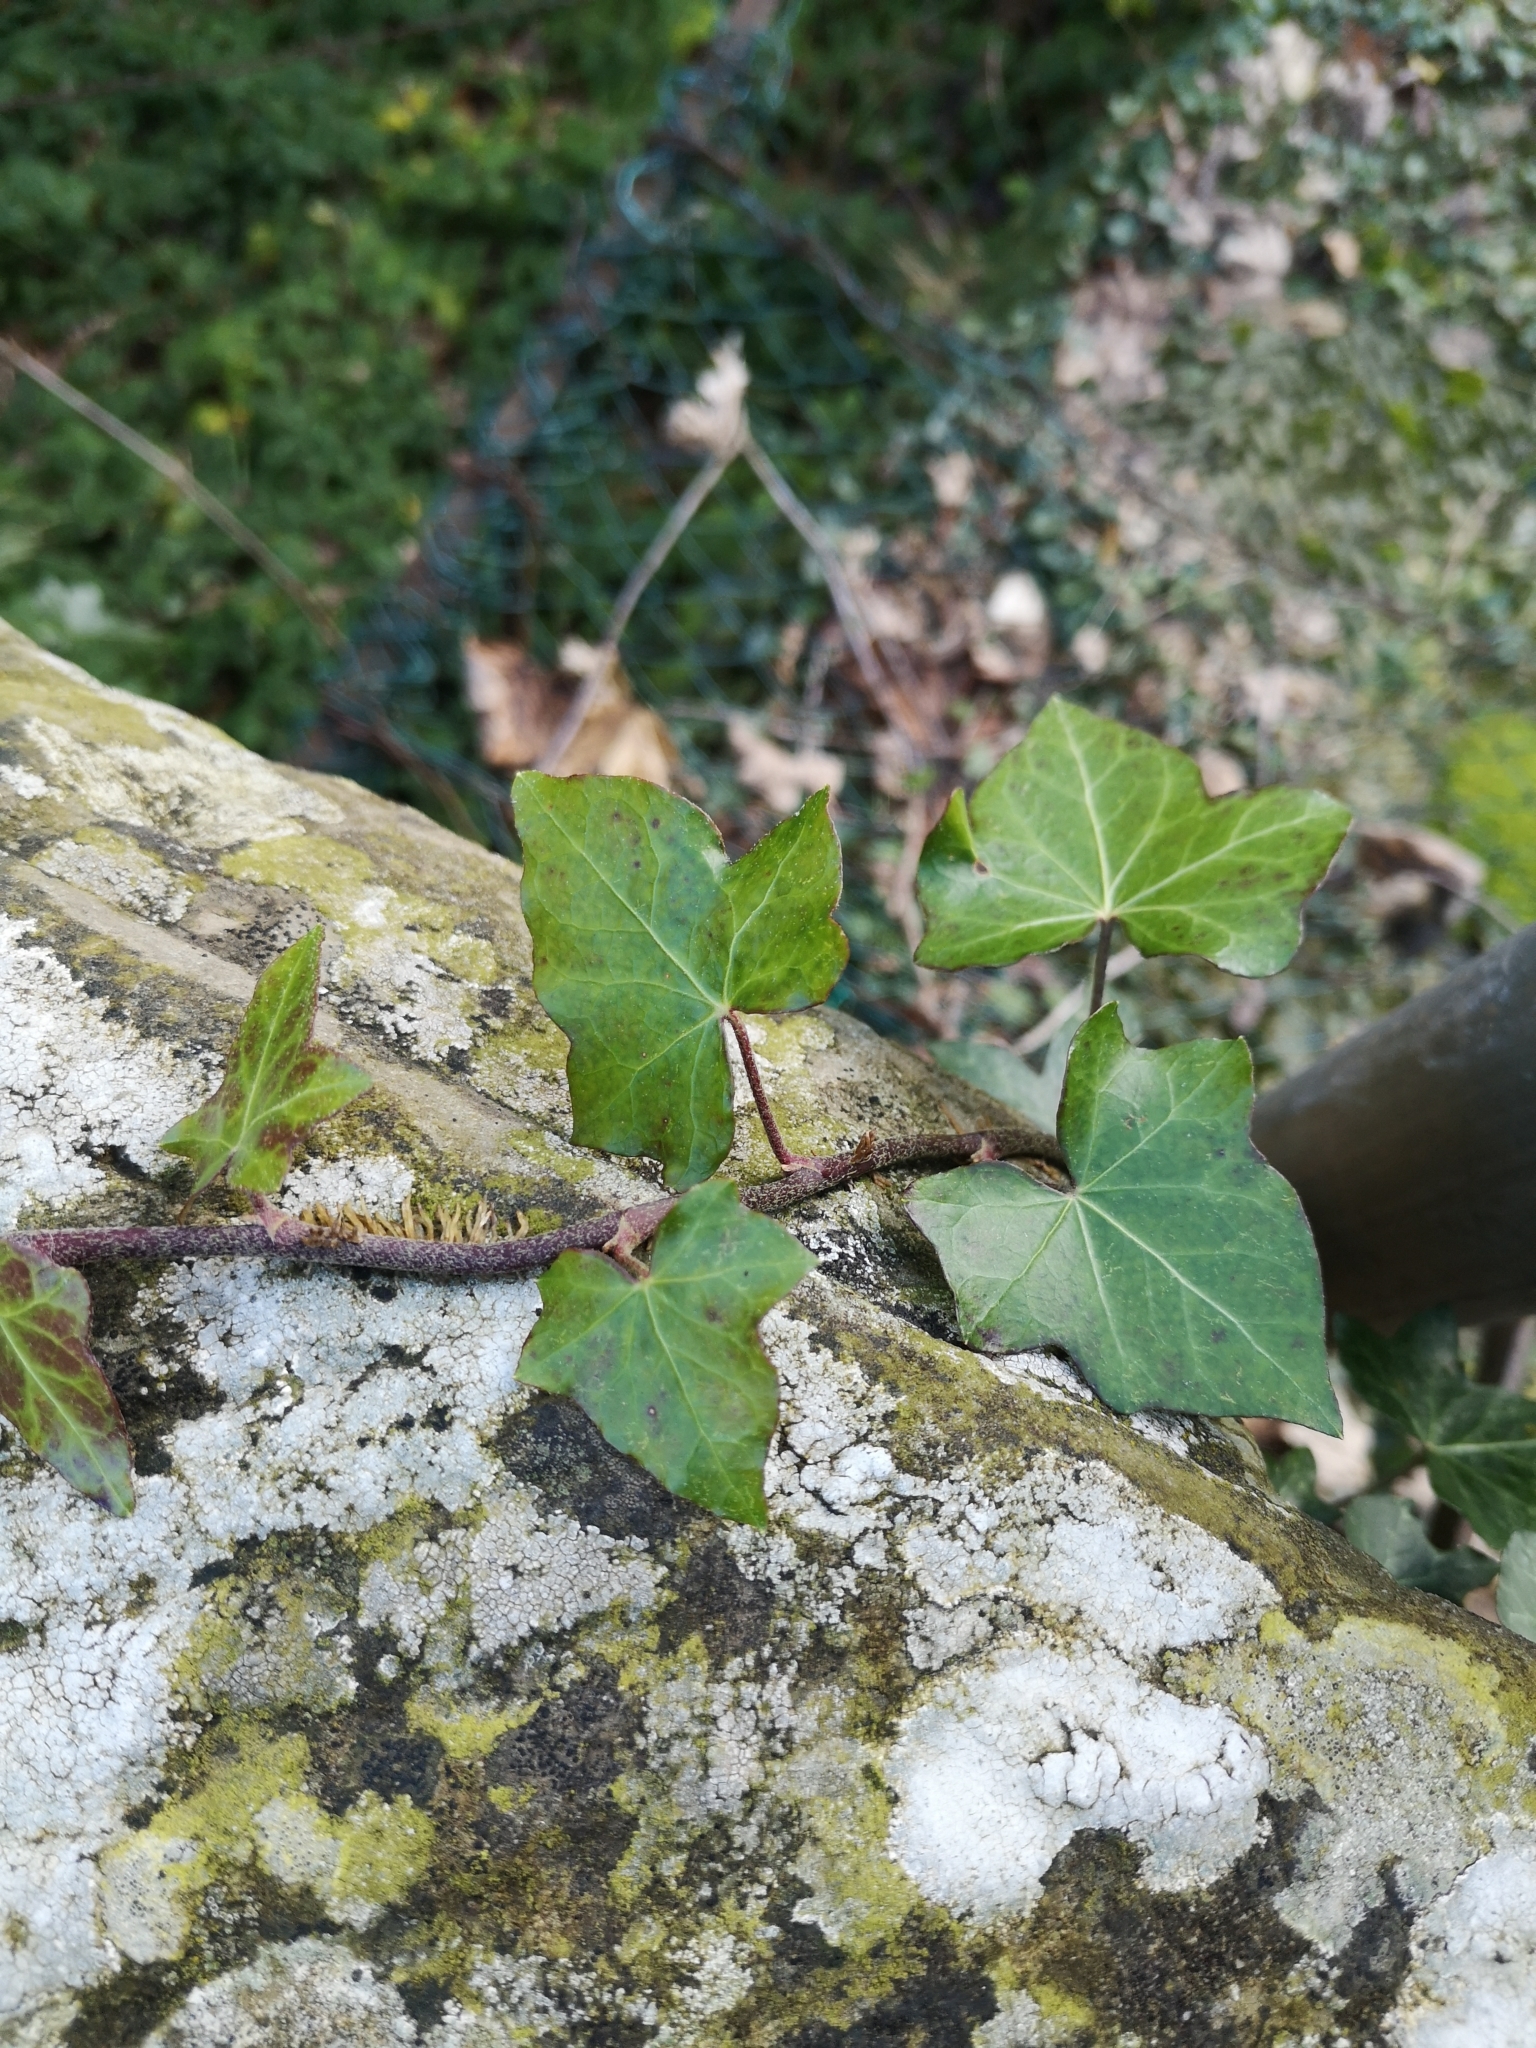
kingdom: Plantae
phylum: Tracheophyta
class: Magnoliopsida
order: Apiales
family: Araliaceae
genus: Hedera
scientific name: Hedera helix
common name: Ivy
